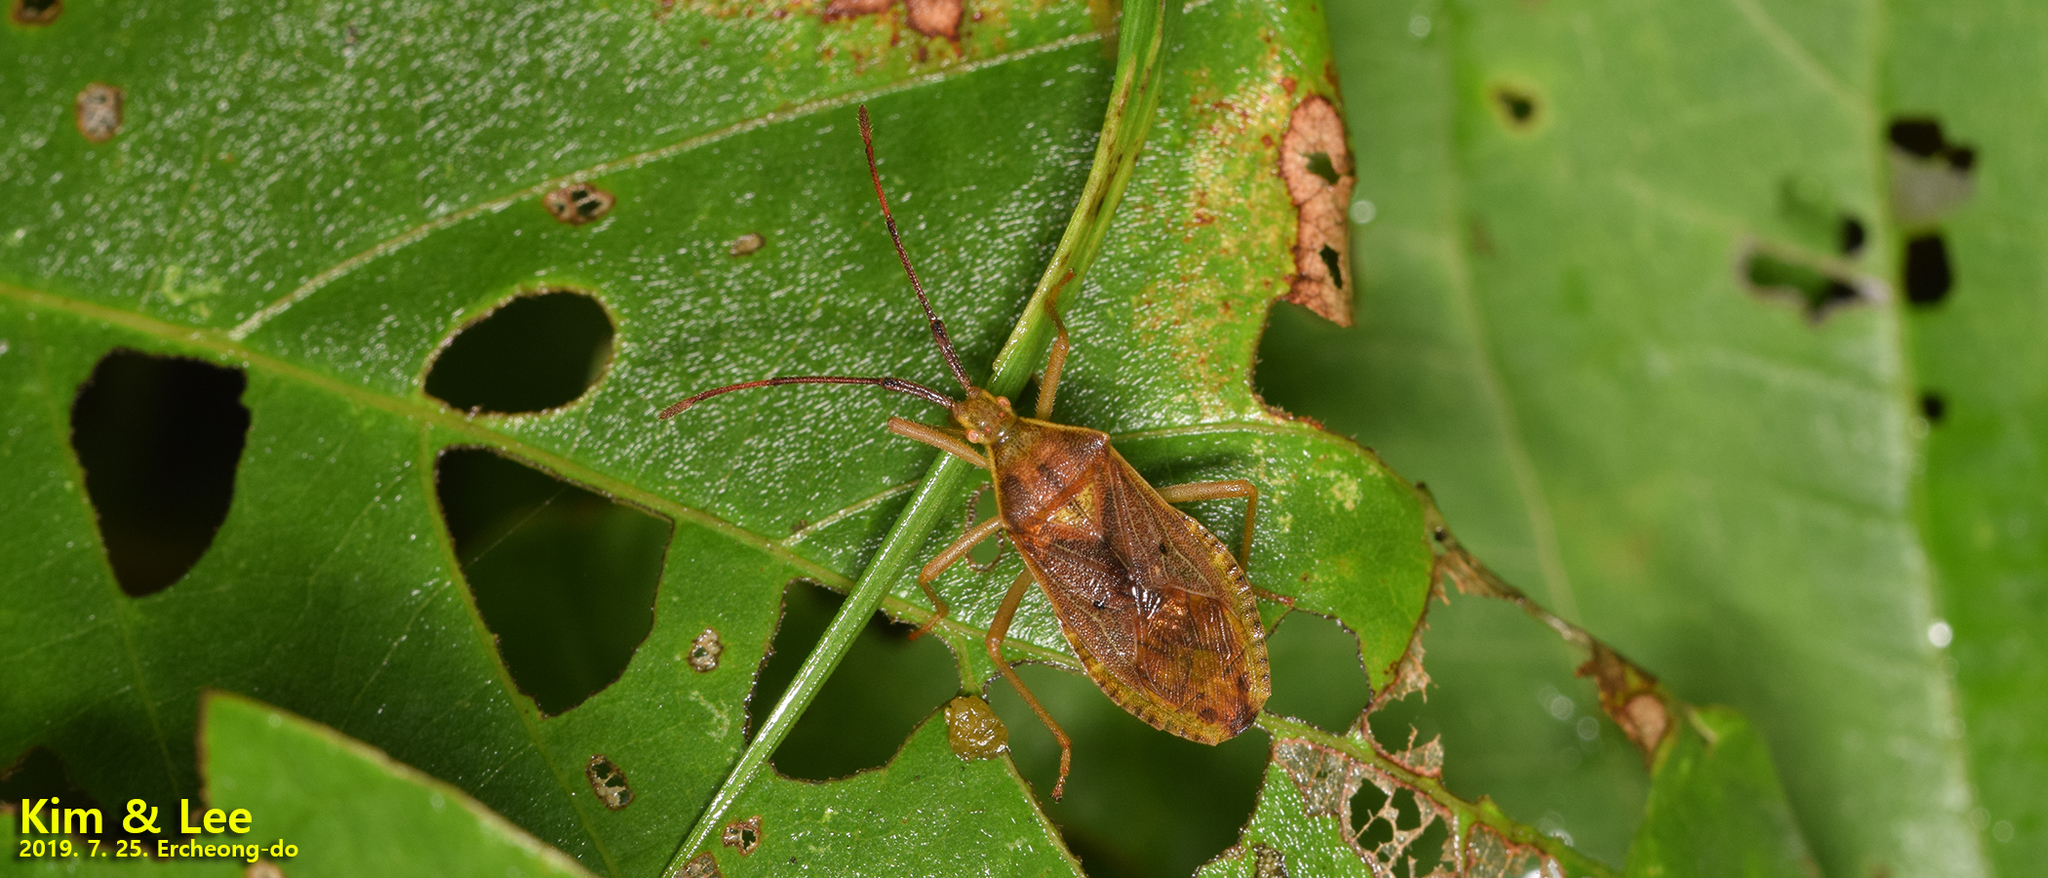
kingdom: Animalia
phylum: Arthropoda
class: Insecta
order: Hemiptera
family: Coreidae
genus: Homoeocerus
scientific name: Homoeocerus unipunctatus
